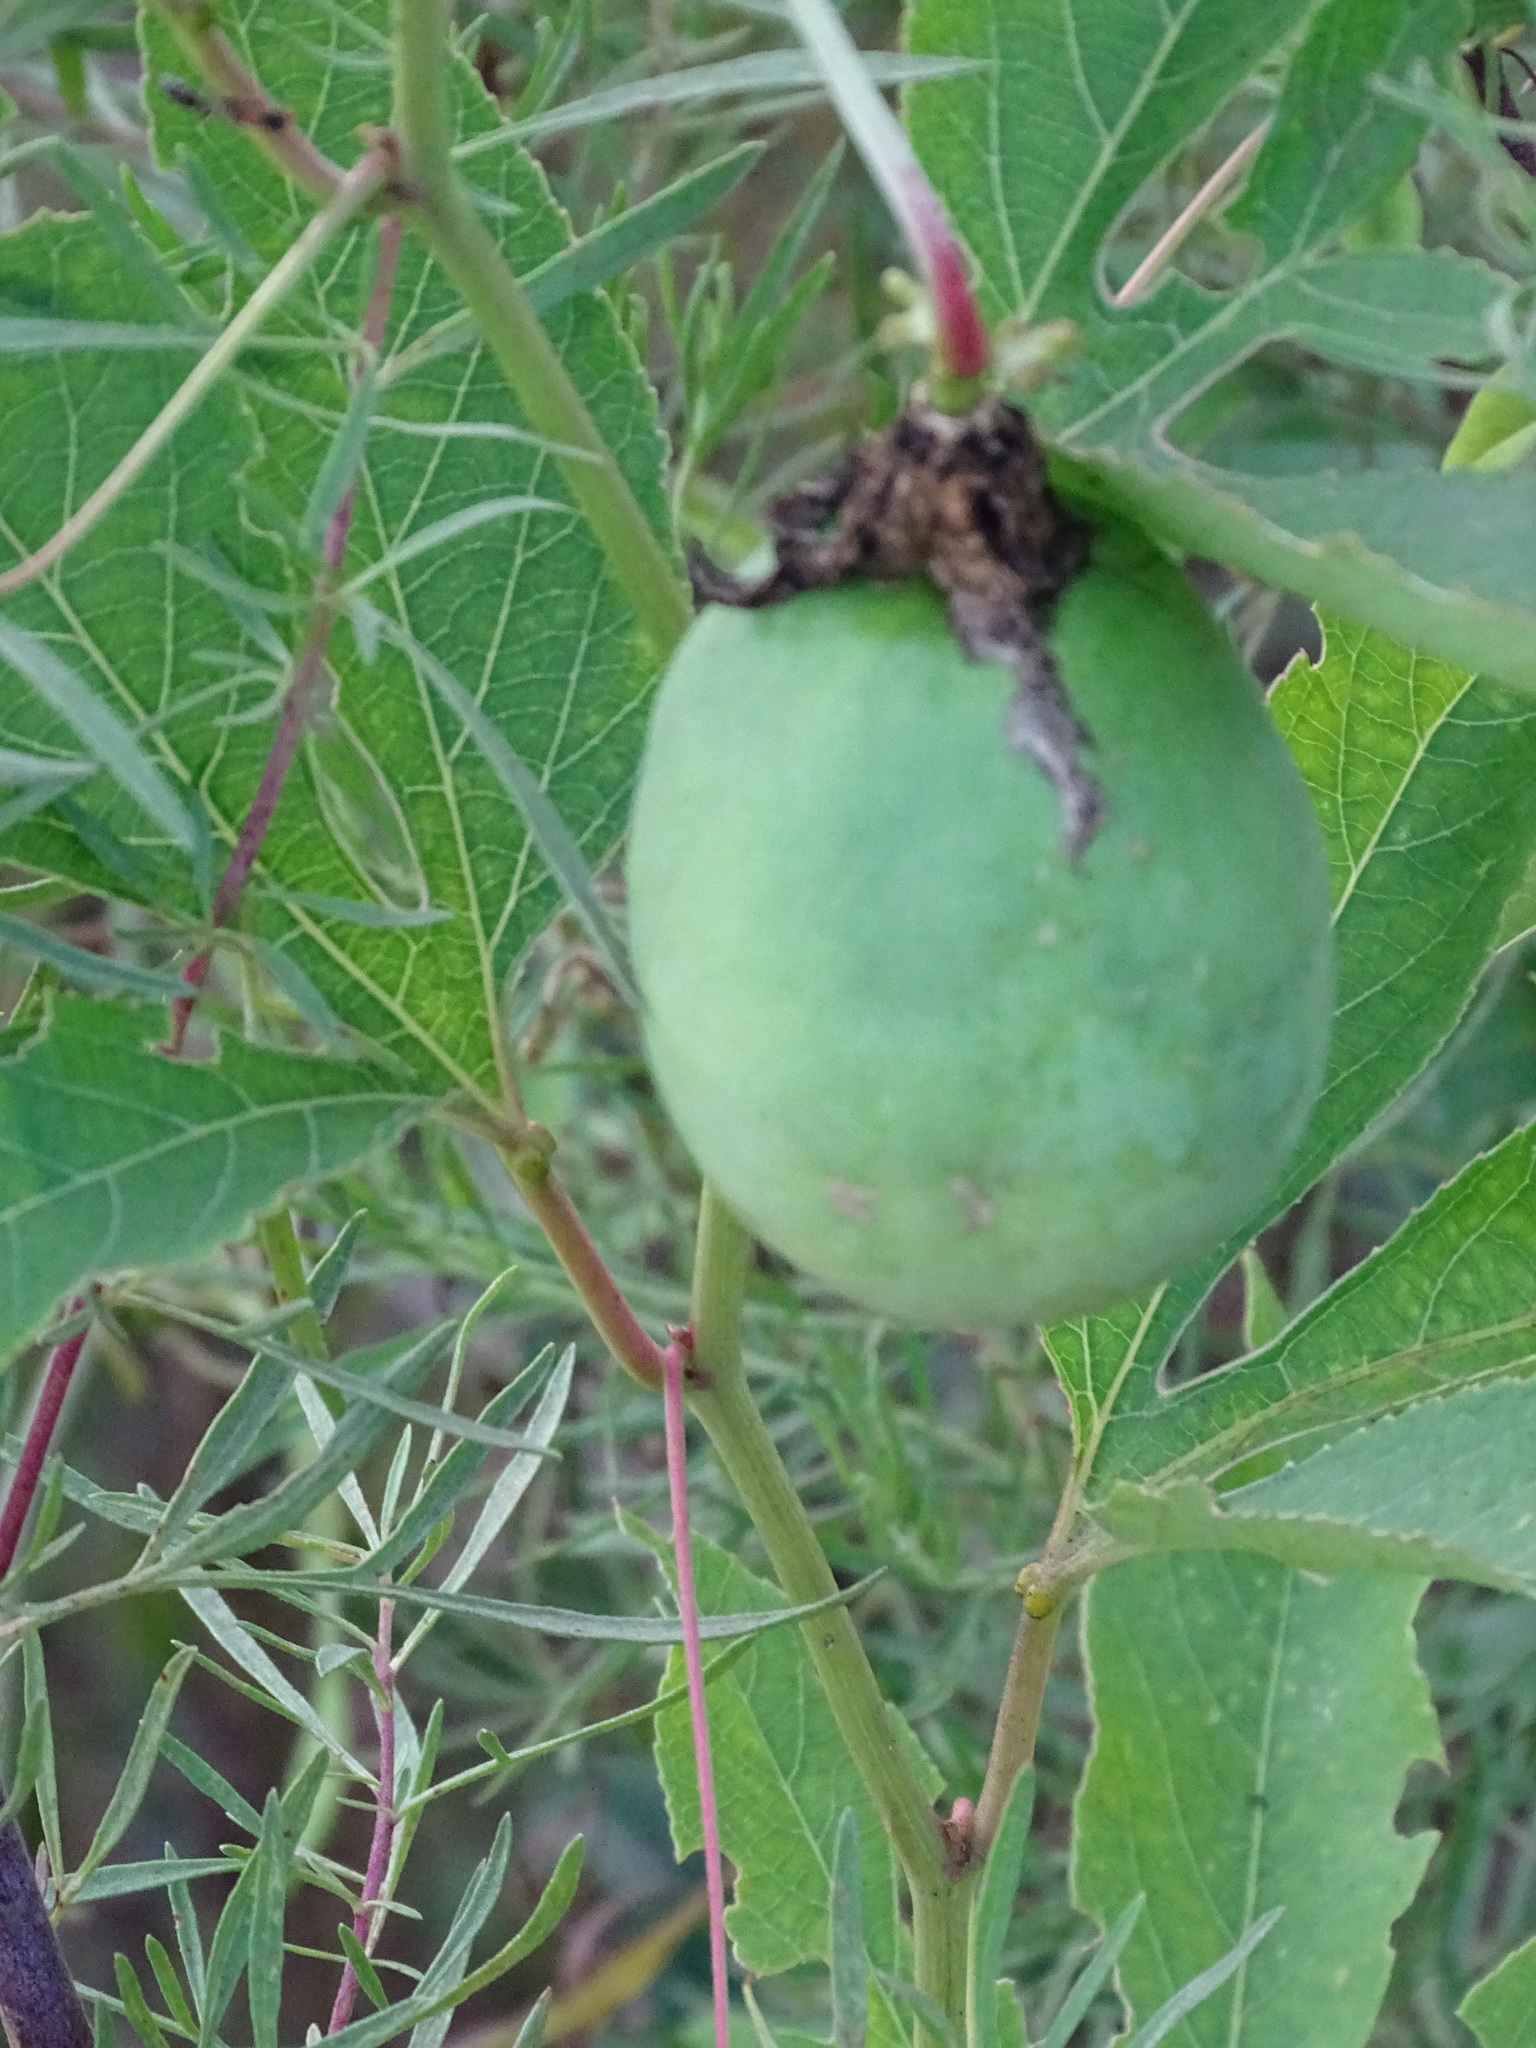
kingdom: Plantae
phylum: Tracheophyta
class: Magnoliopsida
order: Malpighiales
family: Passifloraceae
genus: Passiflora
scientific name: Passiflora incarnata
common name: Apricot-vine
